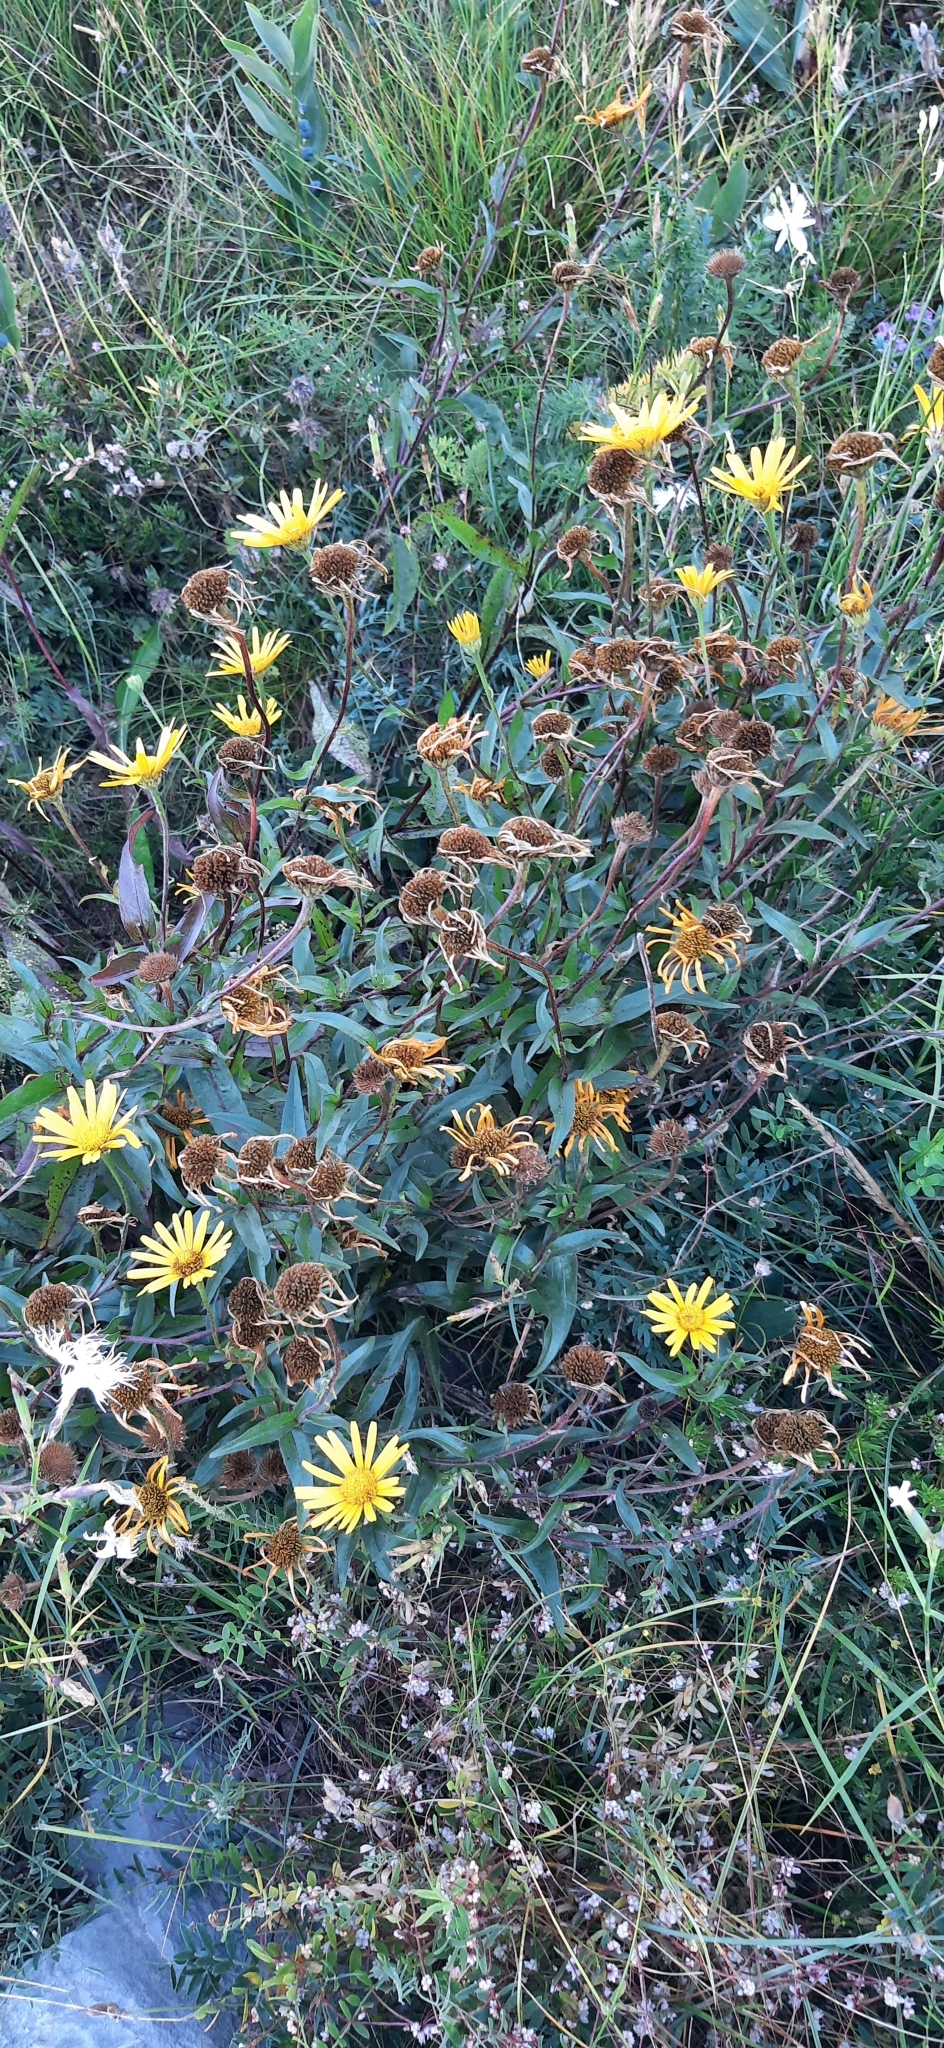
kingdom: Plantae
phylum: Tracheophyta
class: Magnoliopsida
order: Asterales
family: Asteraceae
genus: Buphthalmum
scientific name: Buphthalmum salicifolium
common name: Willow-leaved yellow-oxeye
